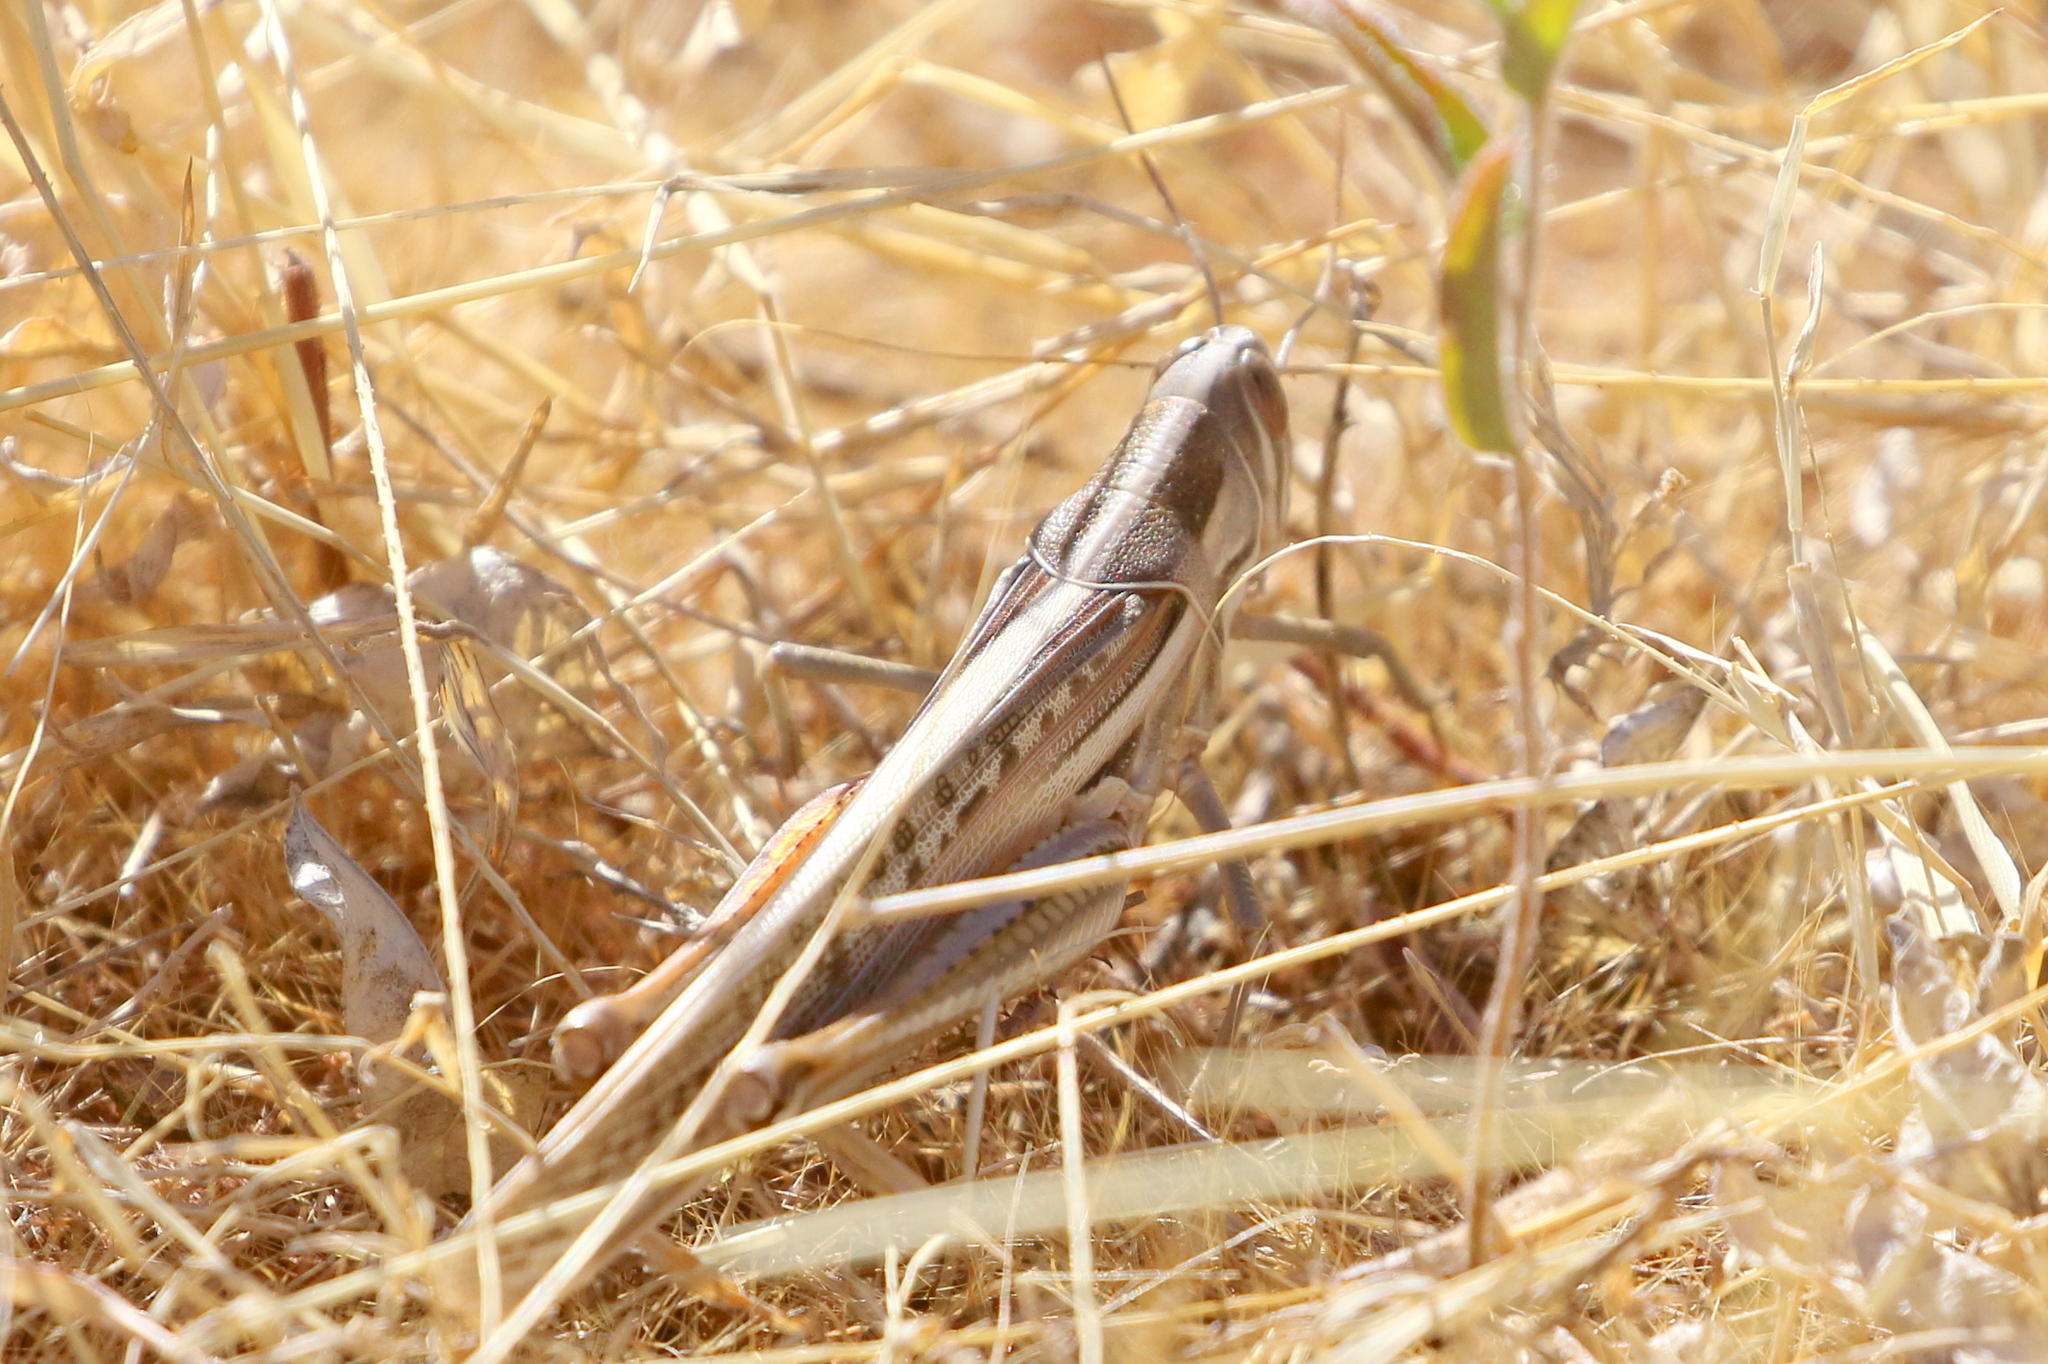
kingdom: Animalia
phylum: Arthropoda
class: Insecta
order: Orthoptera
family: Acrididae
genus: Austracris
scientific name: Austracris guttulosa
